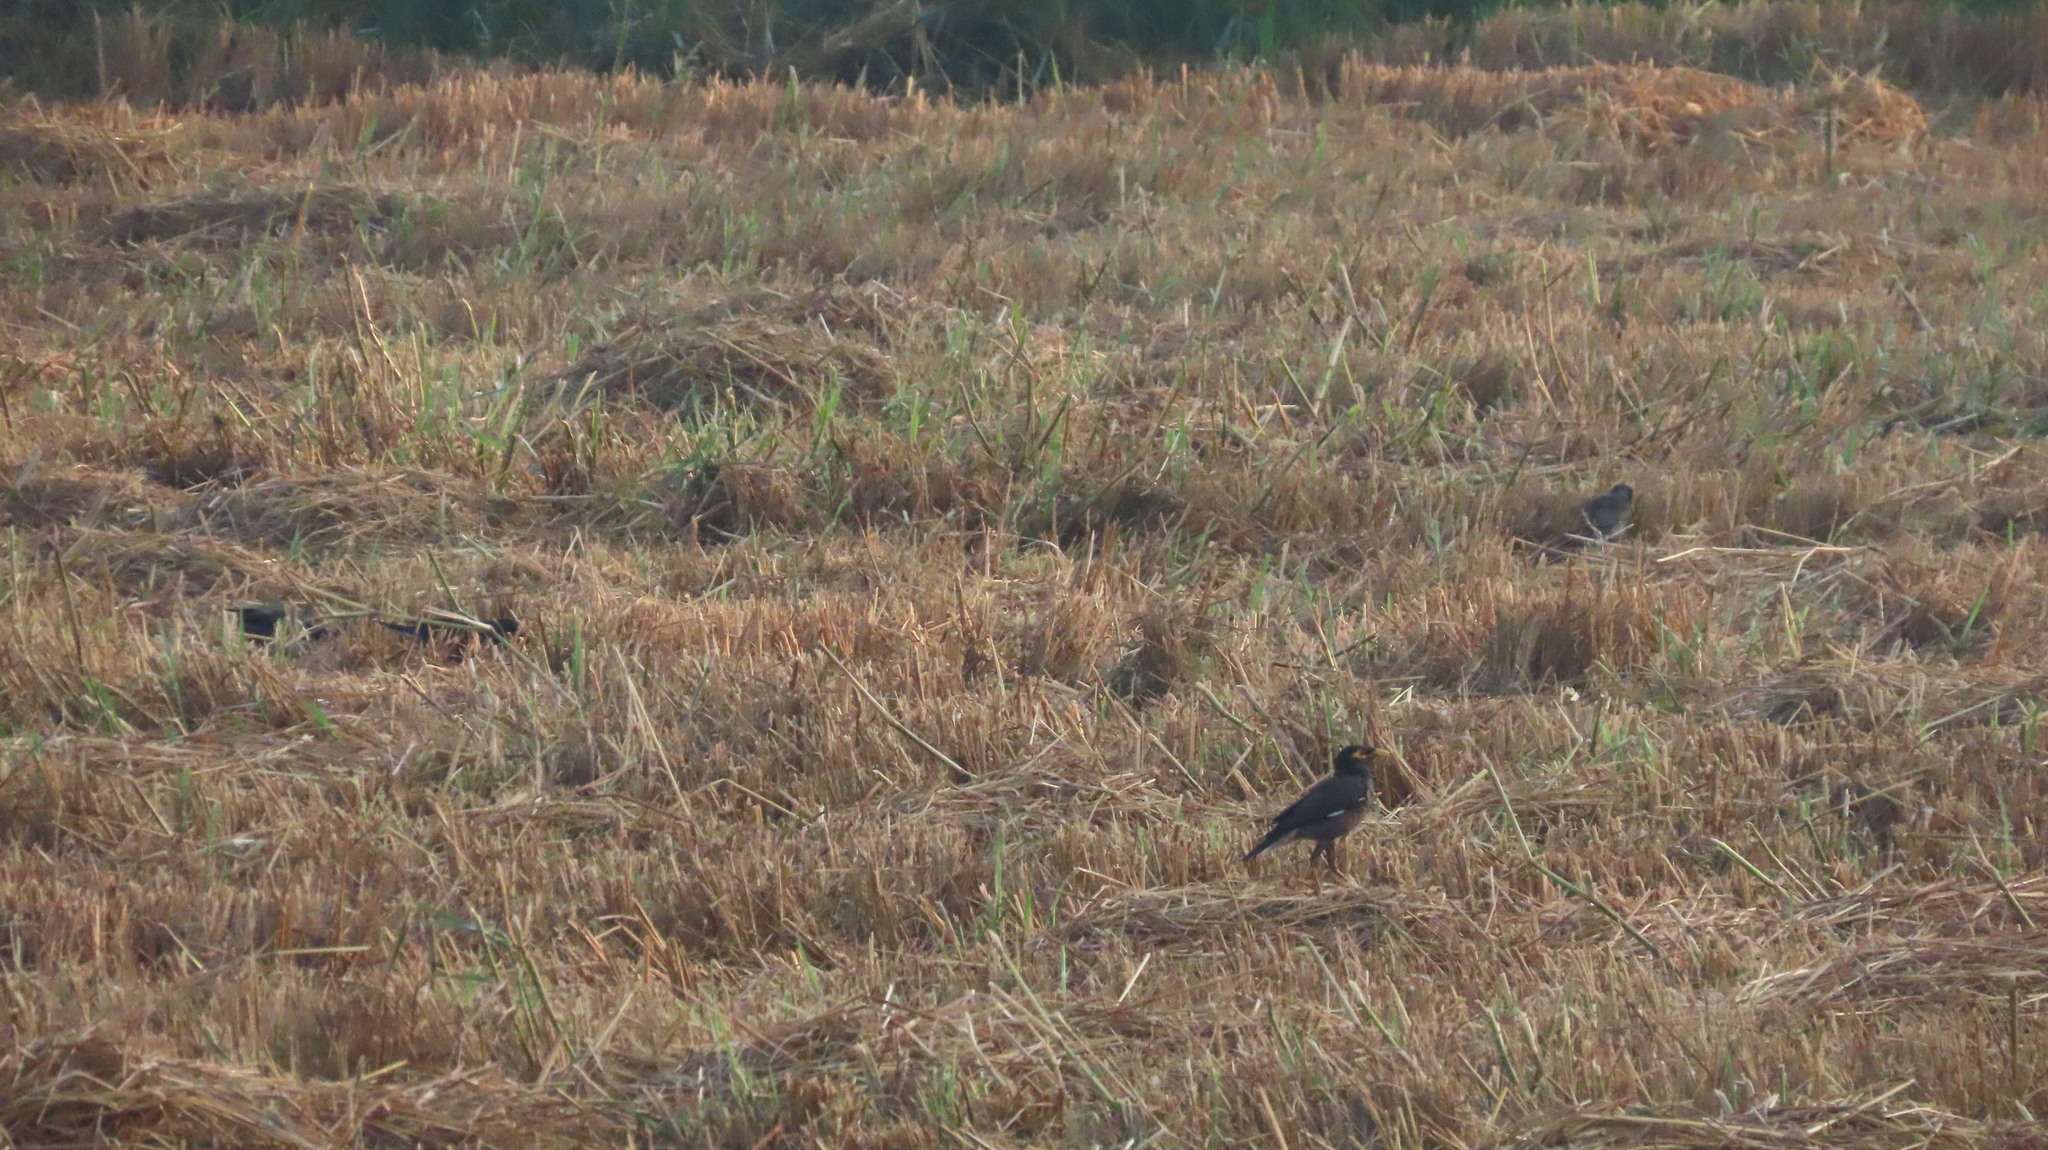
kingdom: Animalia
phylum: Chordata
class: Aves
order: Passeriformes
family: Sturnidae
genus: Acridotheres
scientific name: Acridotheres tristis
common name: Common myna
